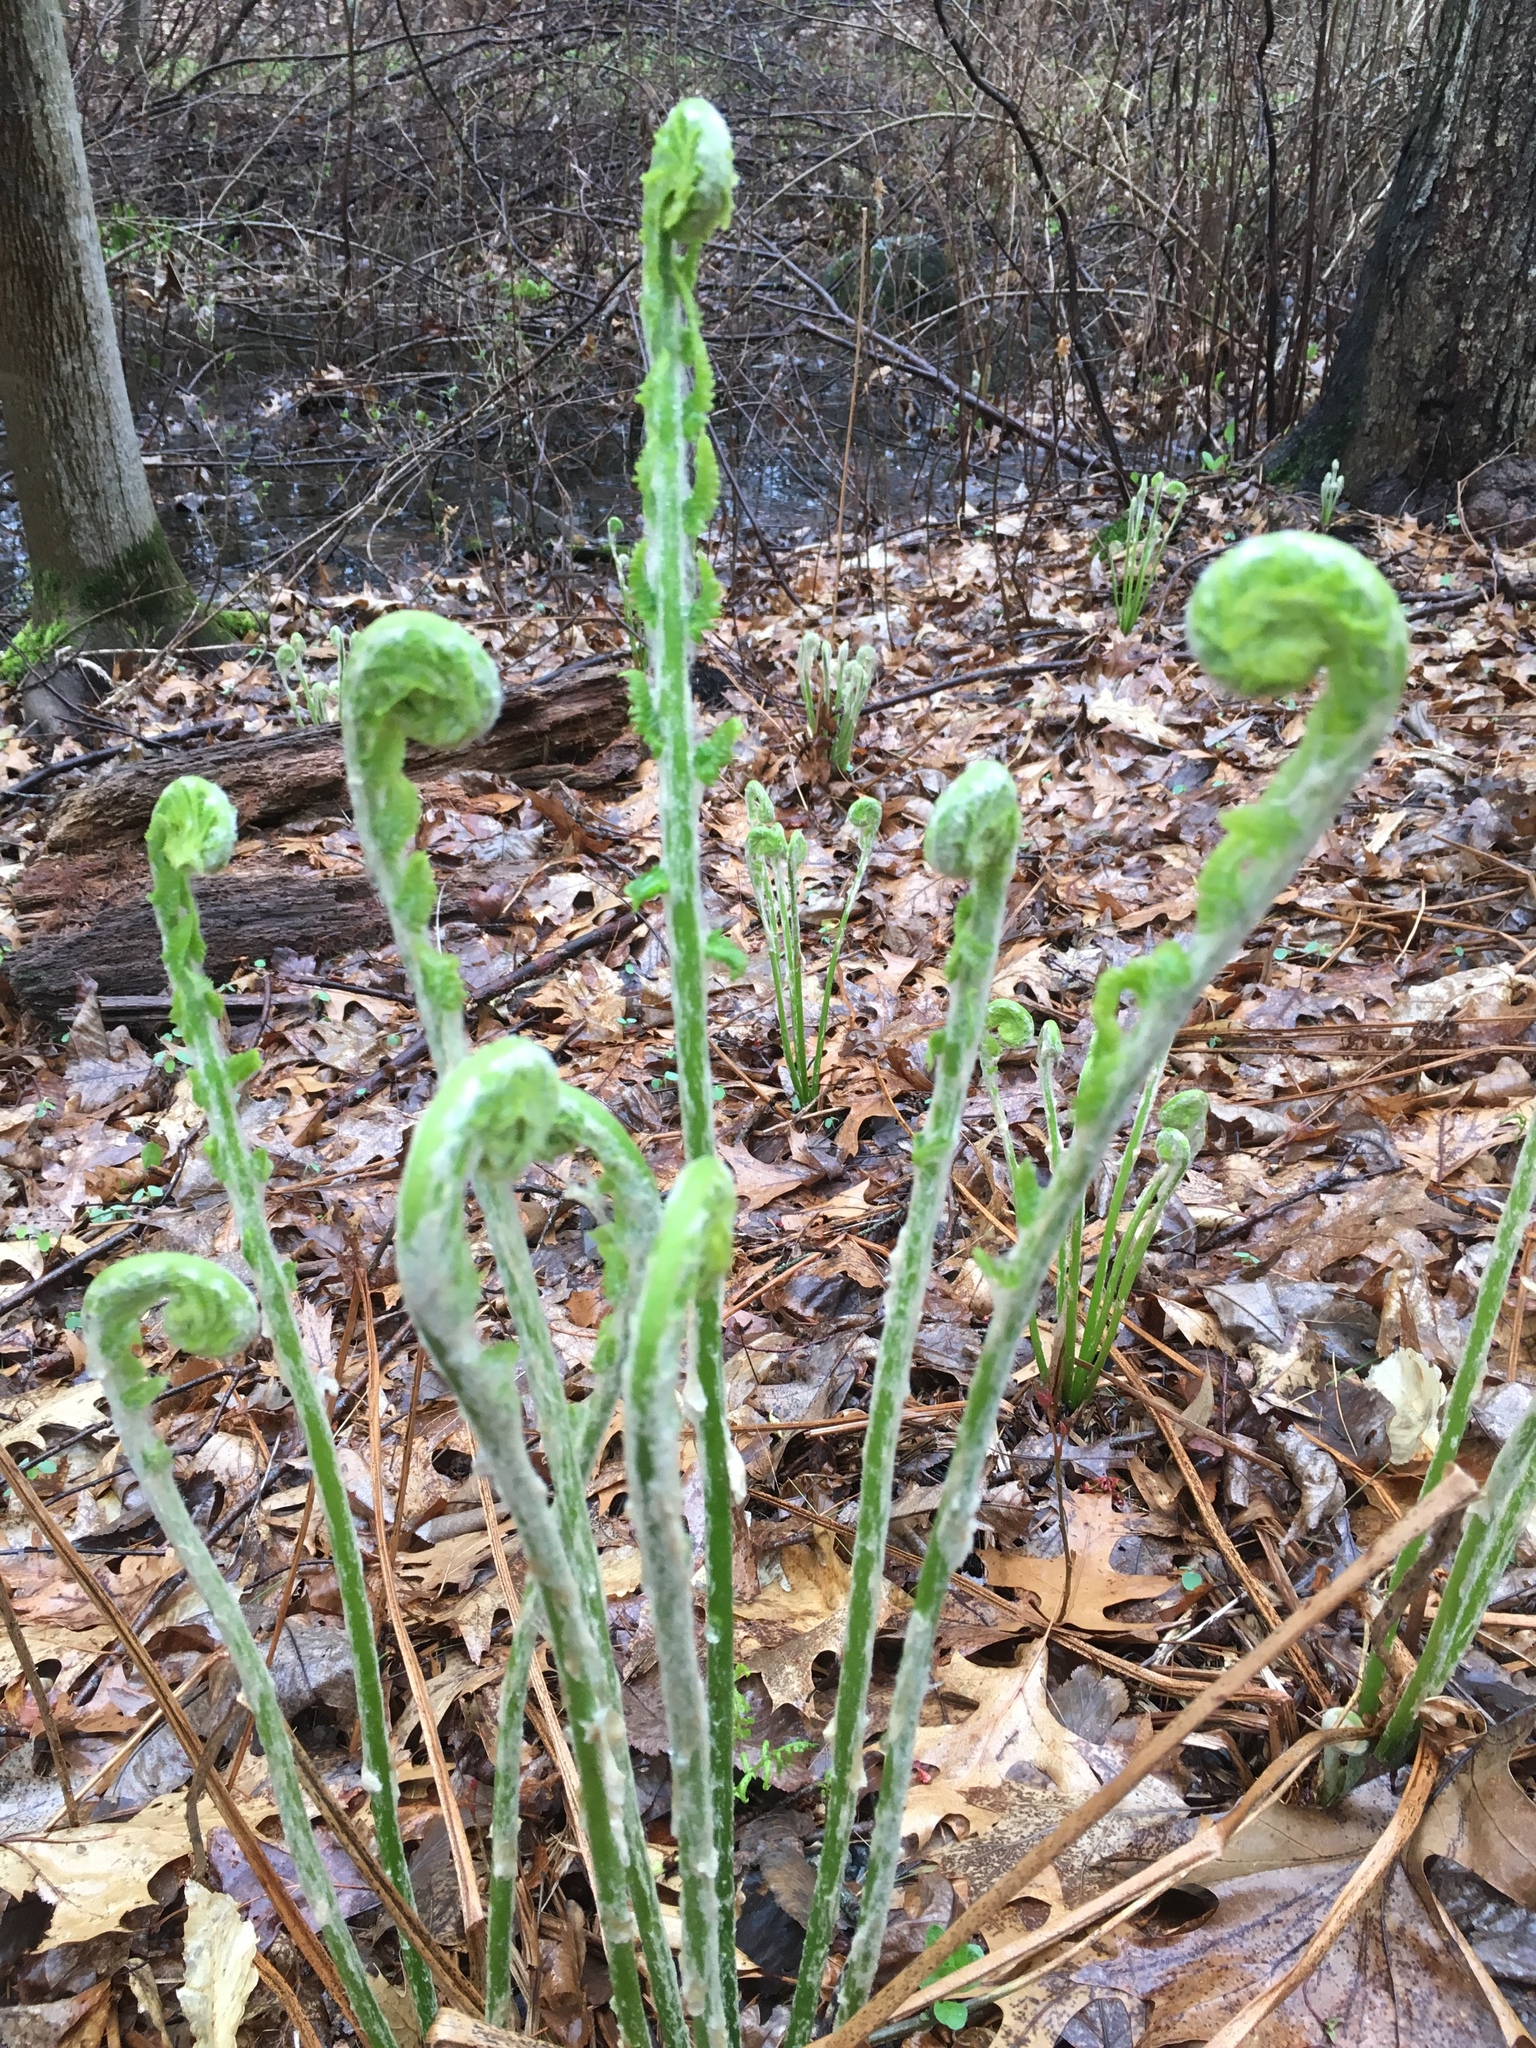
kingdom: Plantae
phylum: Tracheophyta
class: Polypodiopsida
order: Polypodiales
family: Onocleaceae
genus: Matteuccia
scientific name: Matteuccia struthiopteris
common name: Ostrich fern
